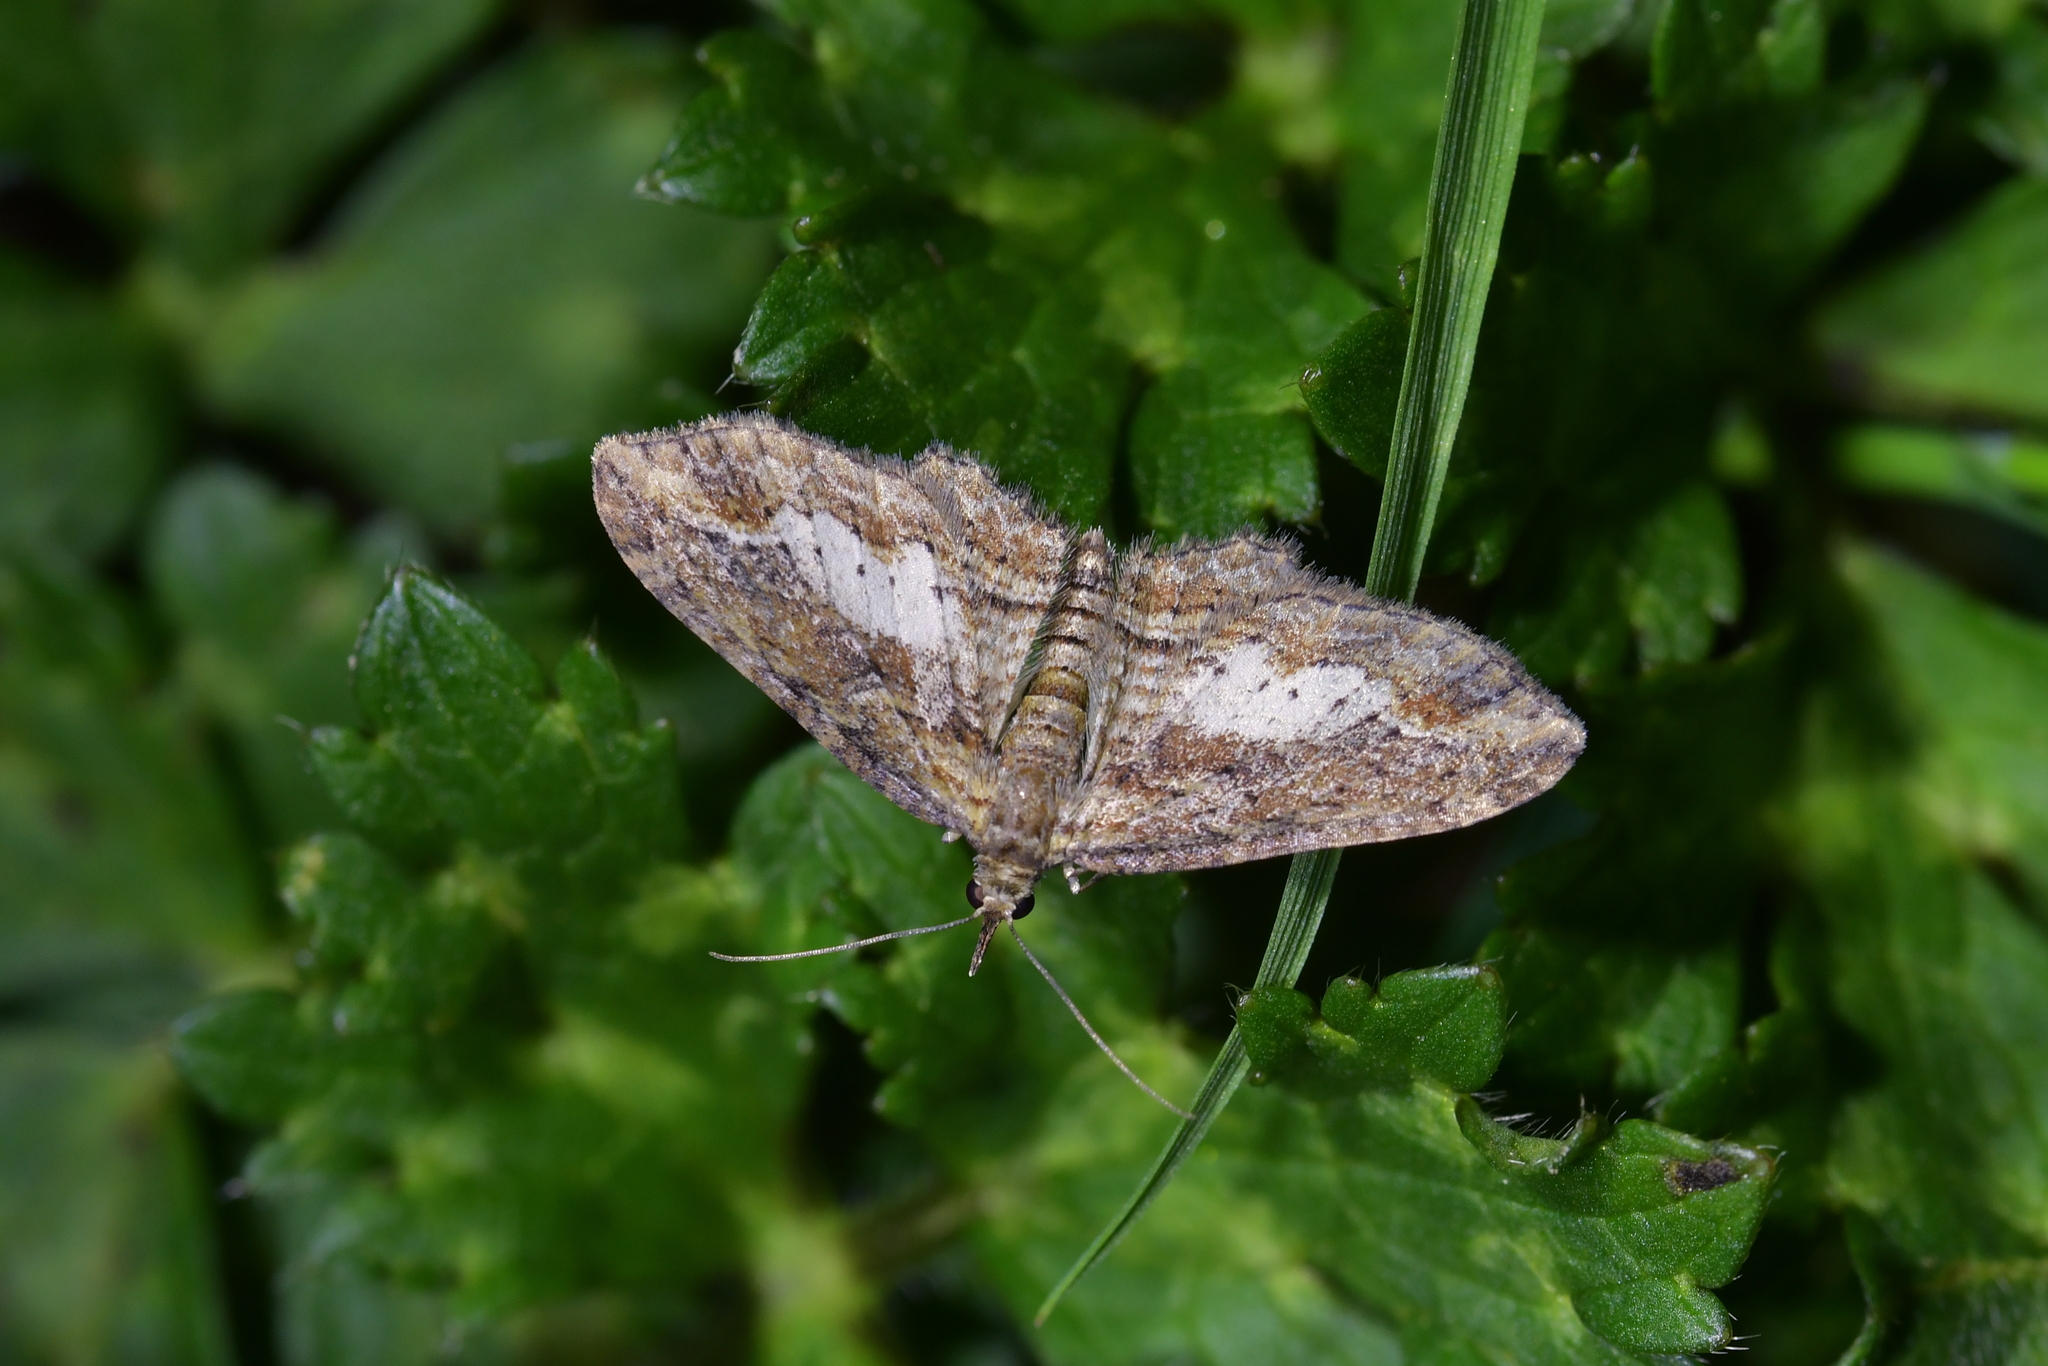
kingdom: Animalia
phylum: Arthropoda
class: Insecta
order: Lepidoptera
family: Geometridae
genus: Chloroclystis
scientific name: Chloroclystis filata
